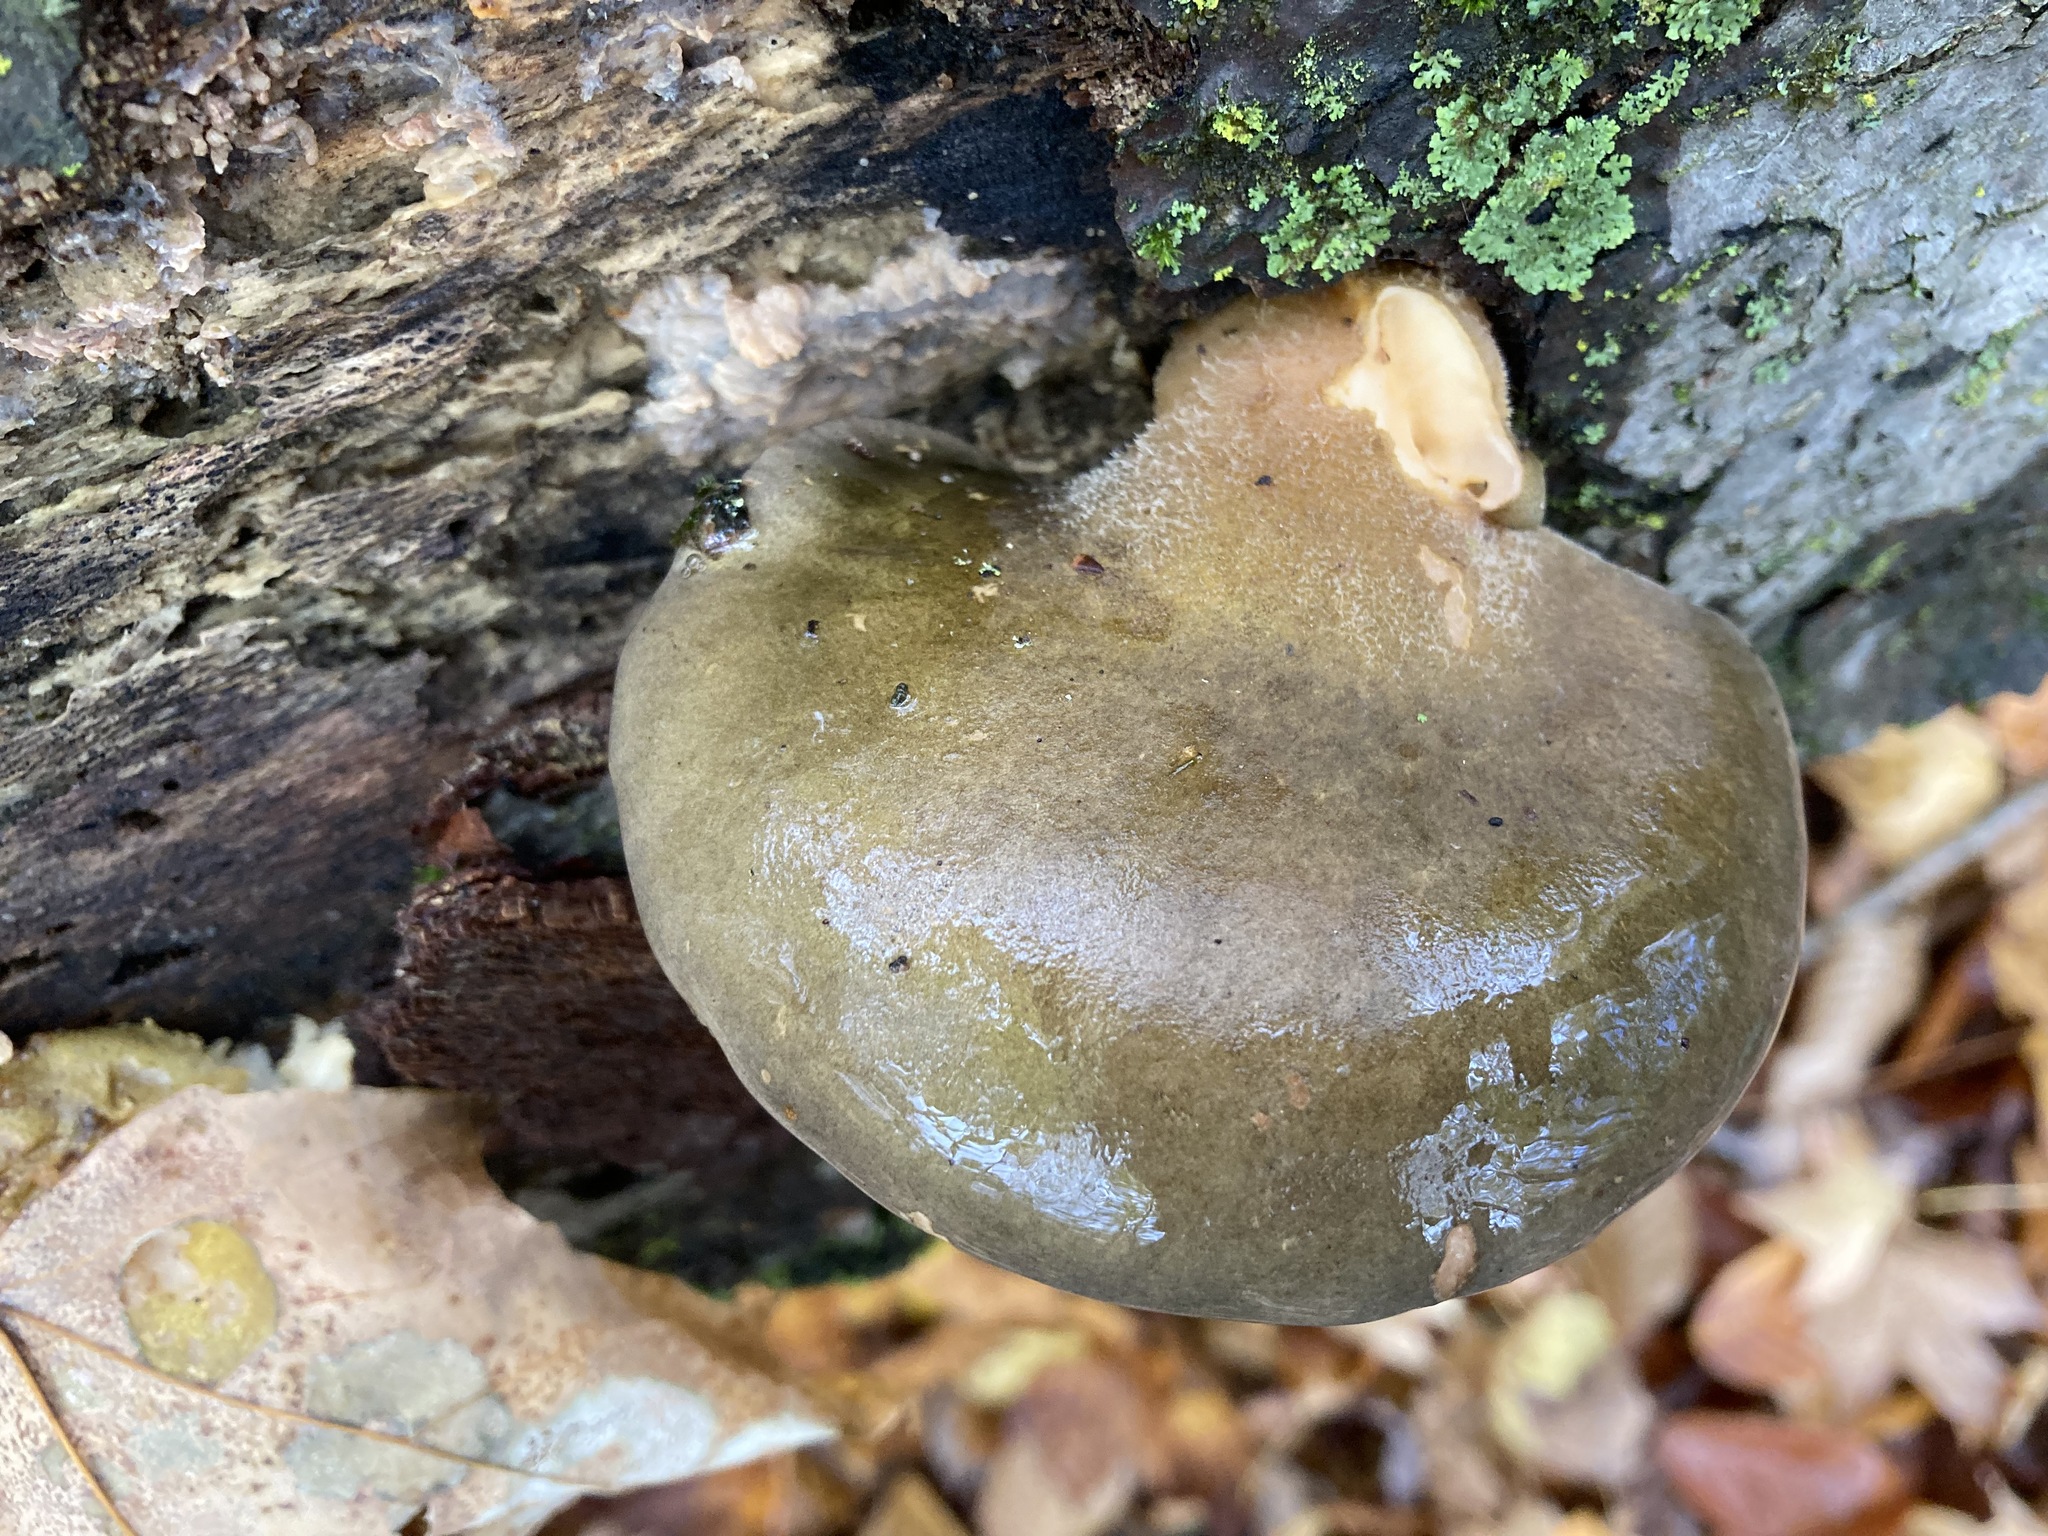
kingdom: Fungi
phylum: Basidiomycota
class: Agaricomycetes
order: Agaricales
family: Sarcomyxaceae
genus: Sarcomyxa
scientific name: Sarcomyxa serotina
